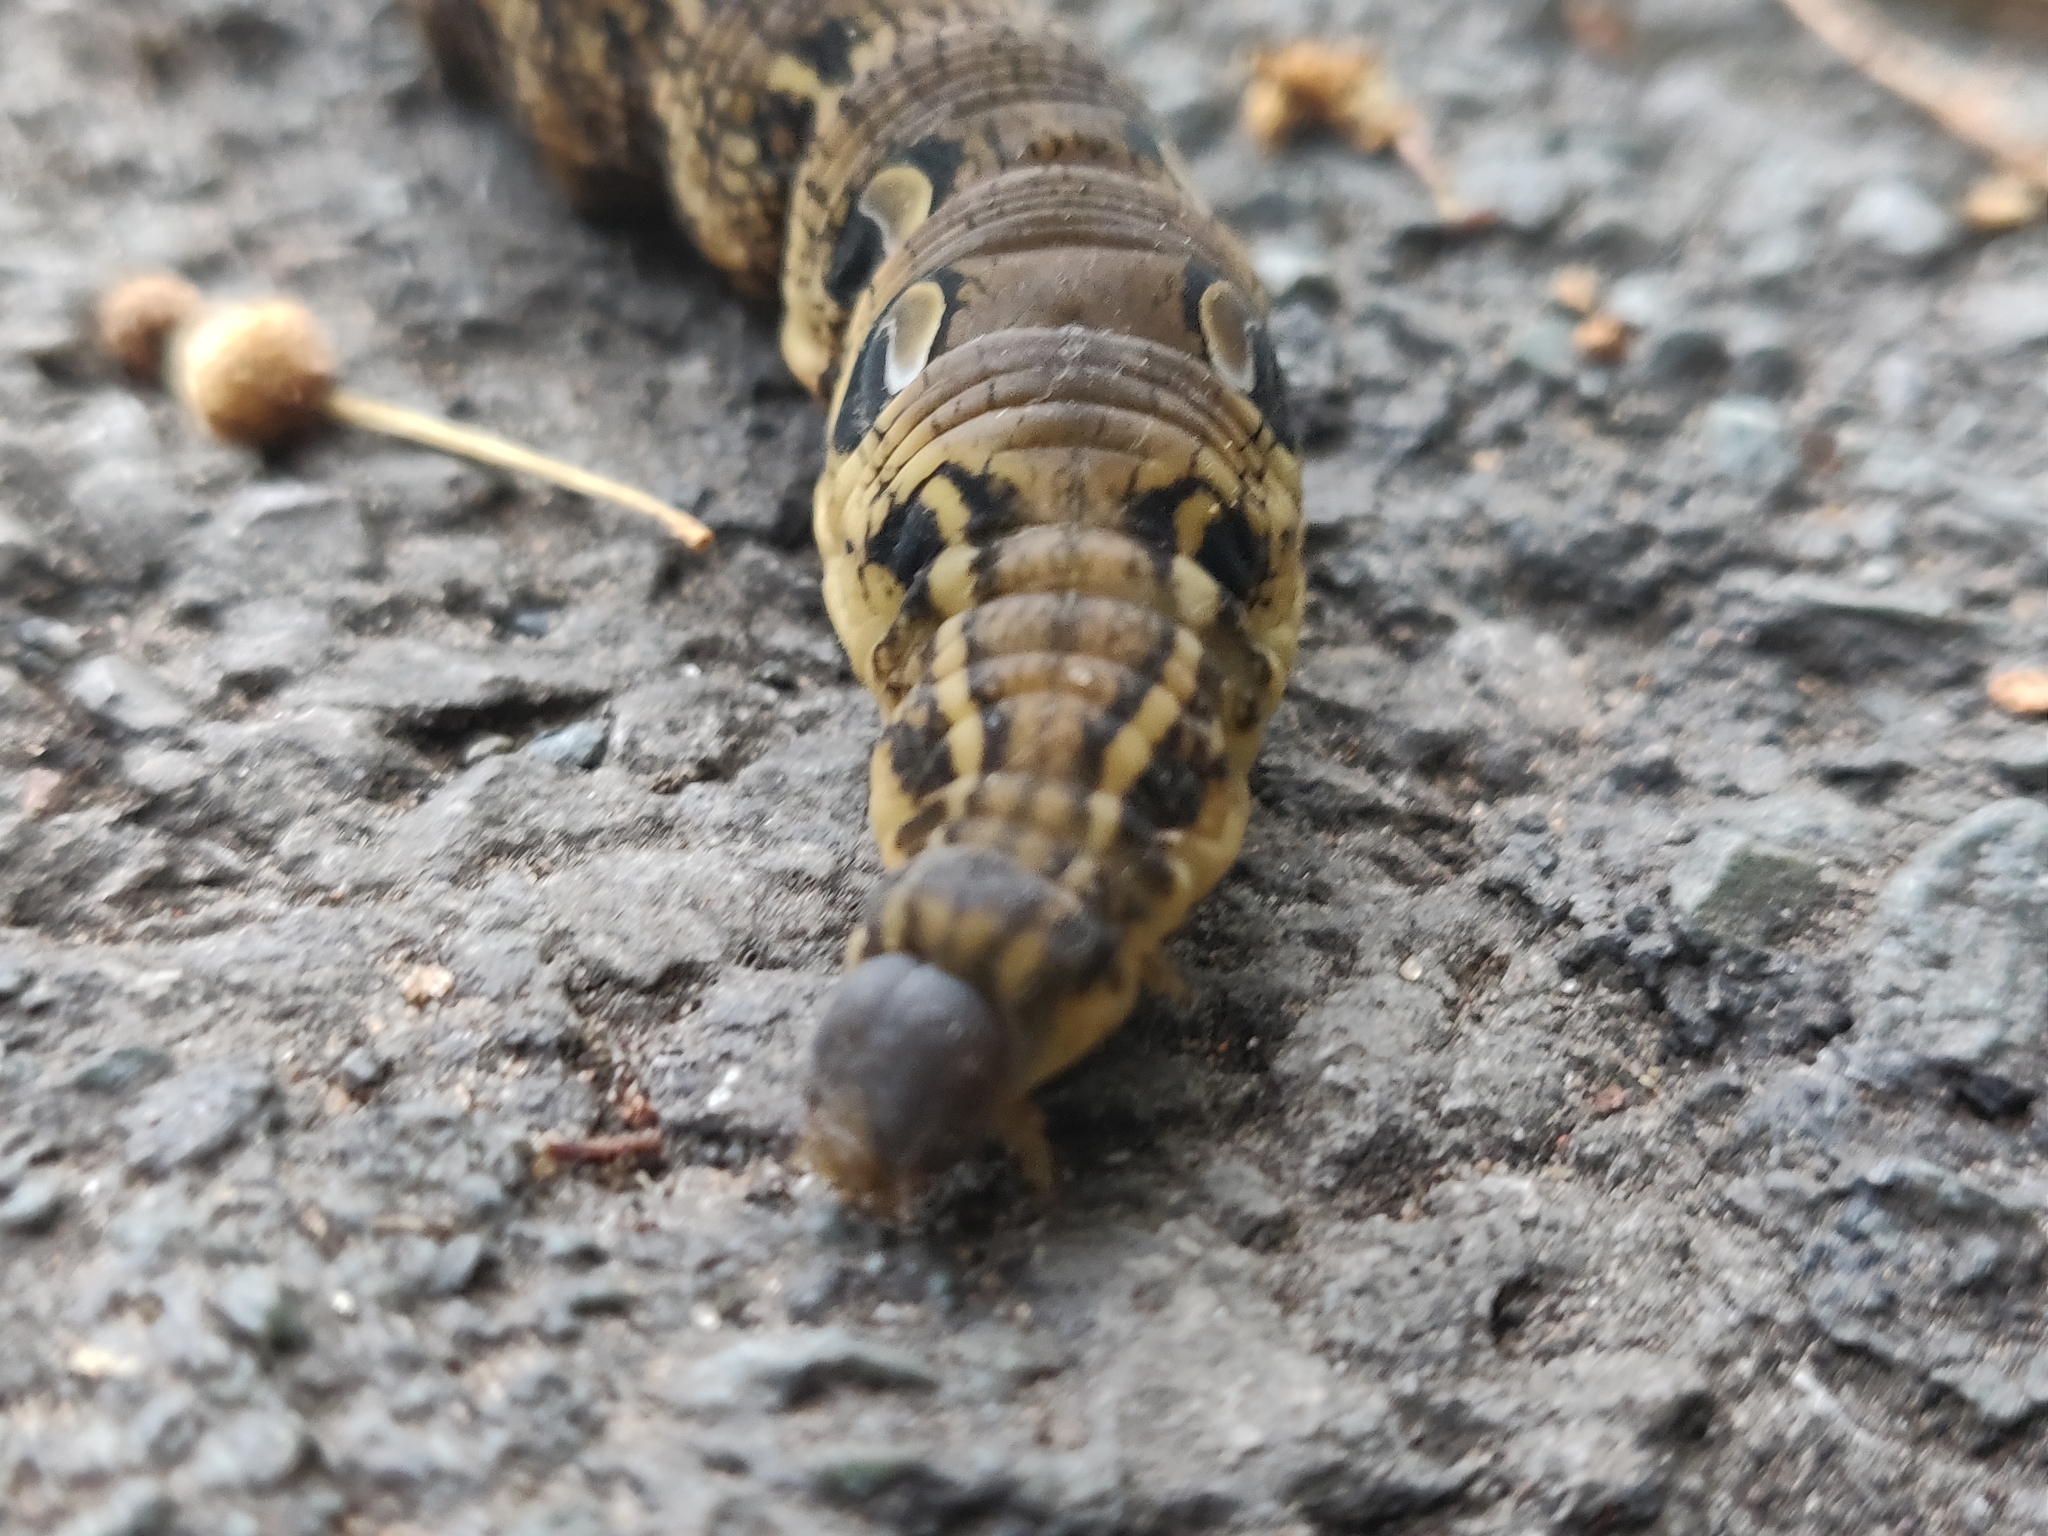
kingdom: Animalia
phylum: Arthropoda
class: Insecta
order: Lepidoptera
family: Sphingidae
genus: Deilephila
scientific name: Deilephila elpenor
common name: Elephant hawk-moth
